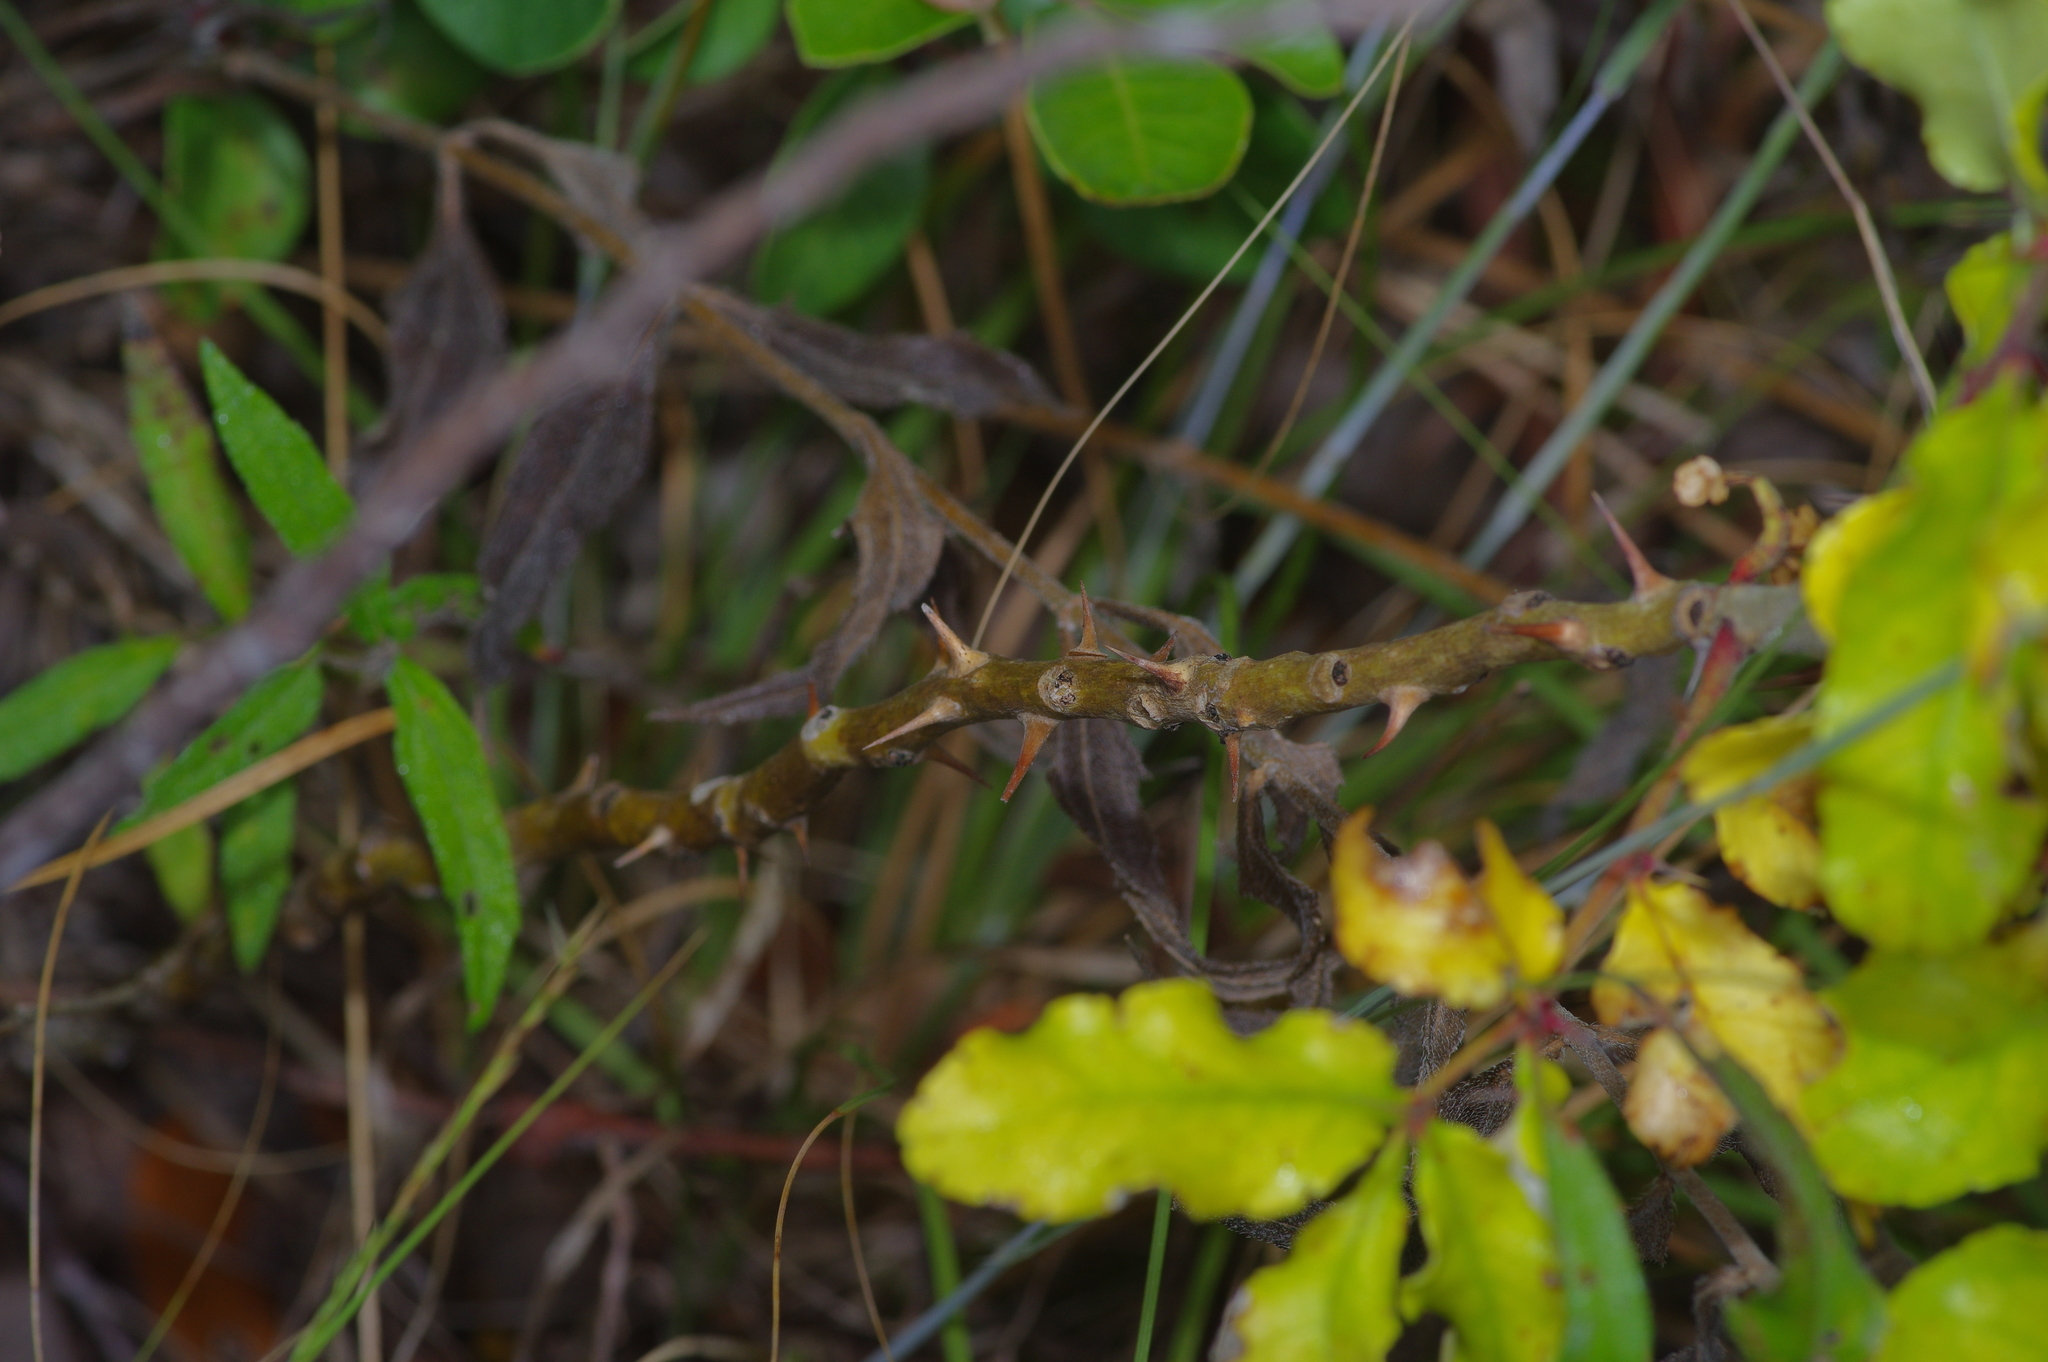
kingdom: Plantae
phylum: Tracheophyta
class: Magnoliopsida
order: Sapindales
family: Rutaceae
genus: Zanthoxylum
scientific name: Zanthoxylum clava-herculis
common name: Hercules'-club
